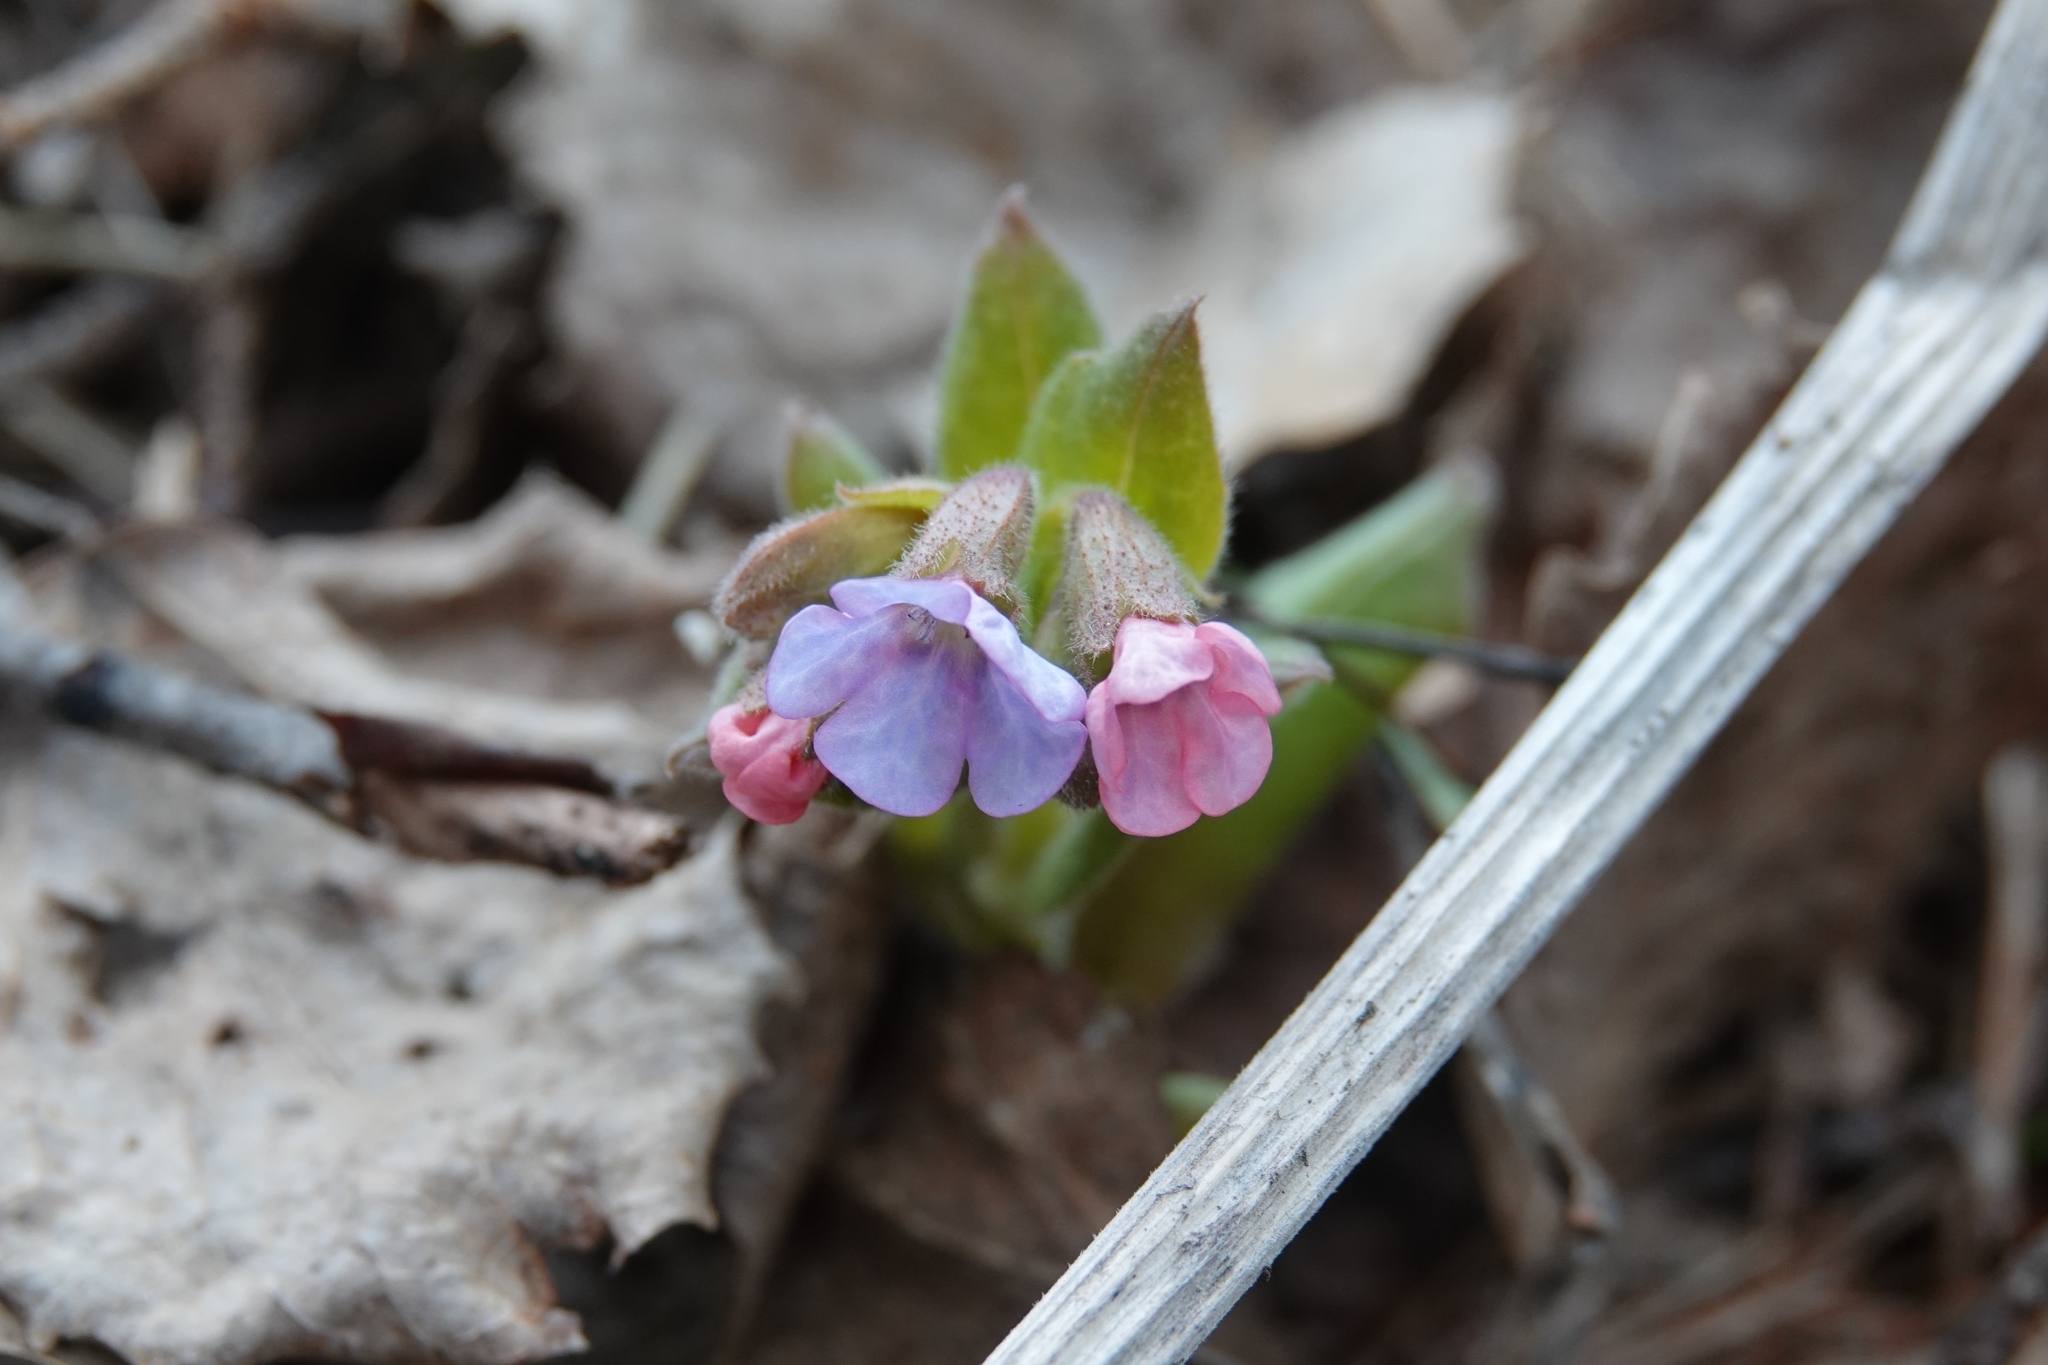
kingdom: Plantae
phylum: Tracheophyta
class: Magnoliopsida
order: Boraginales
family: Boraginaceae
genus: Pulmonaria
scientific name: Pulmonaria obscura
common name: Suffolk lungwort
